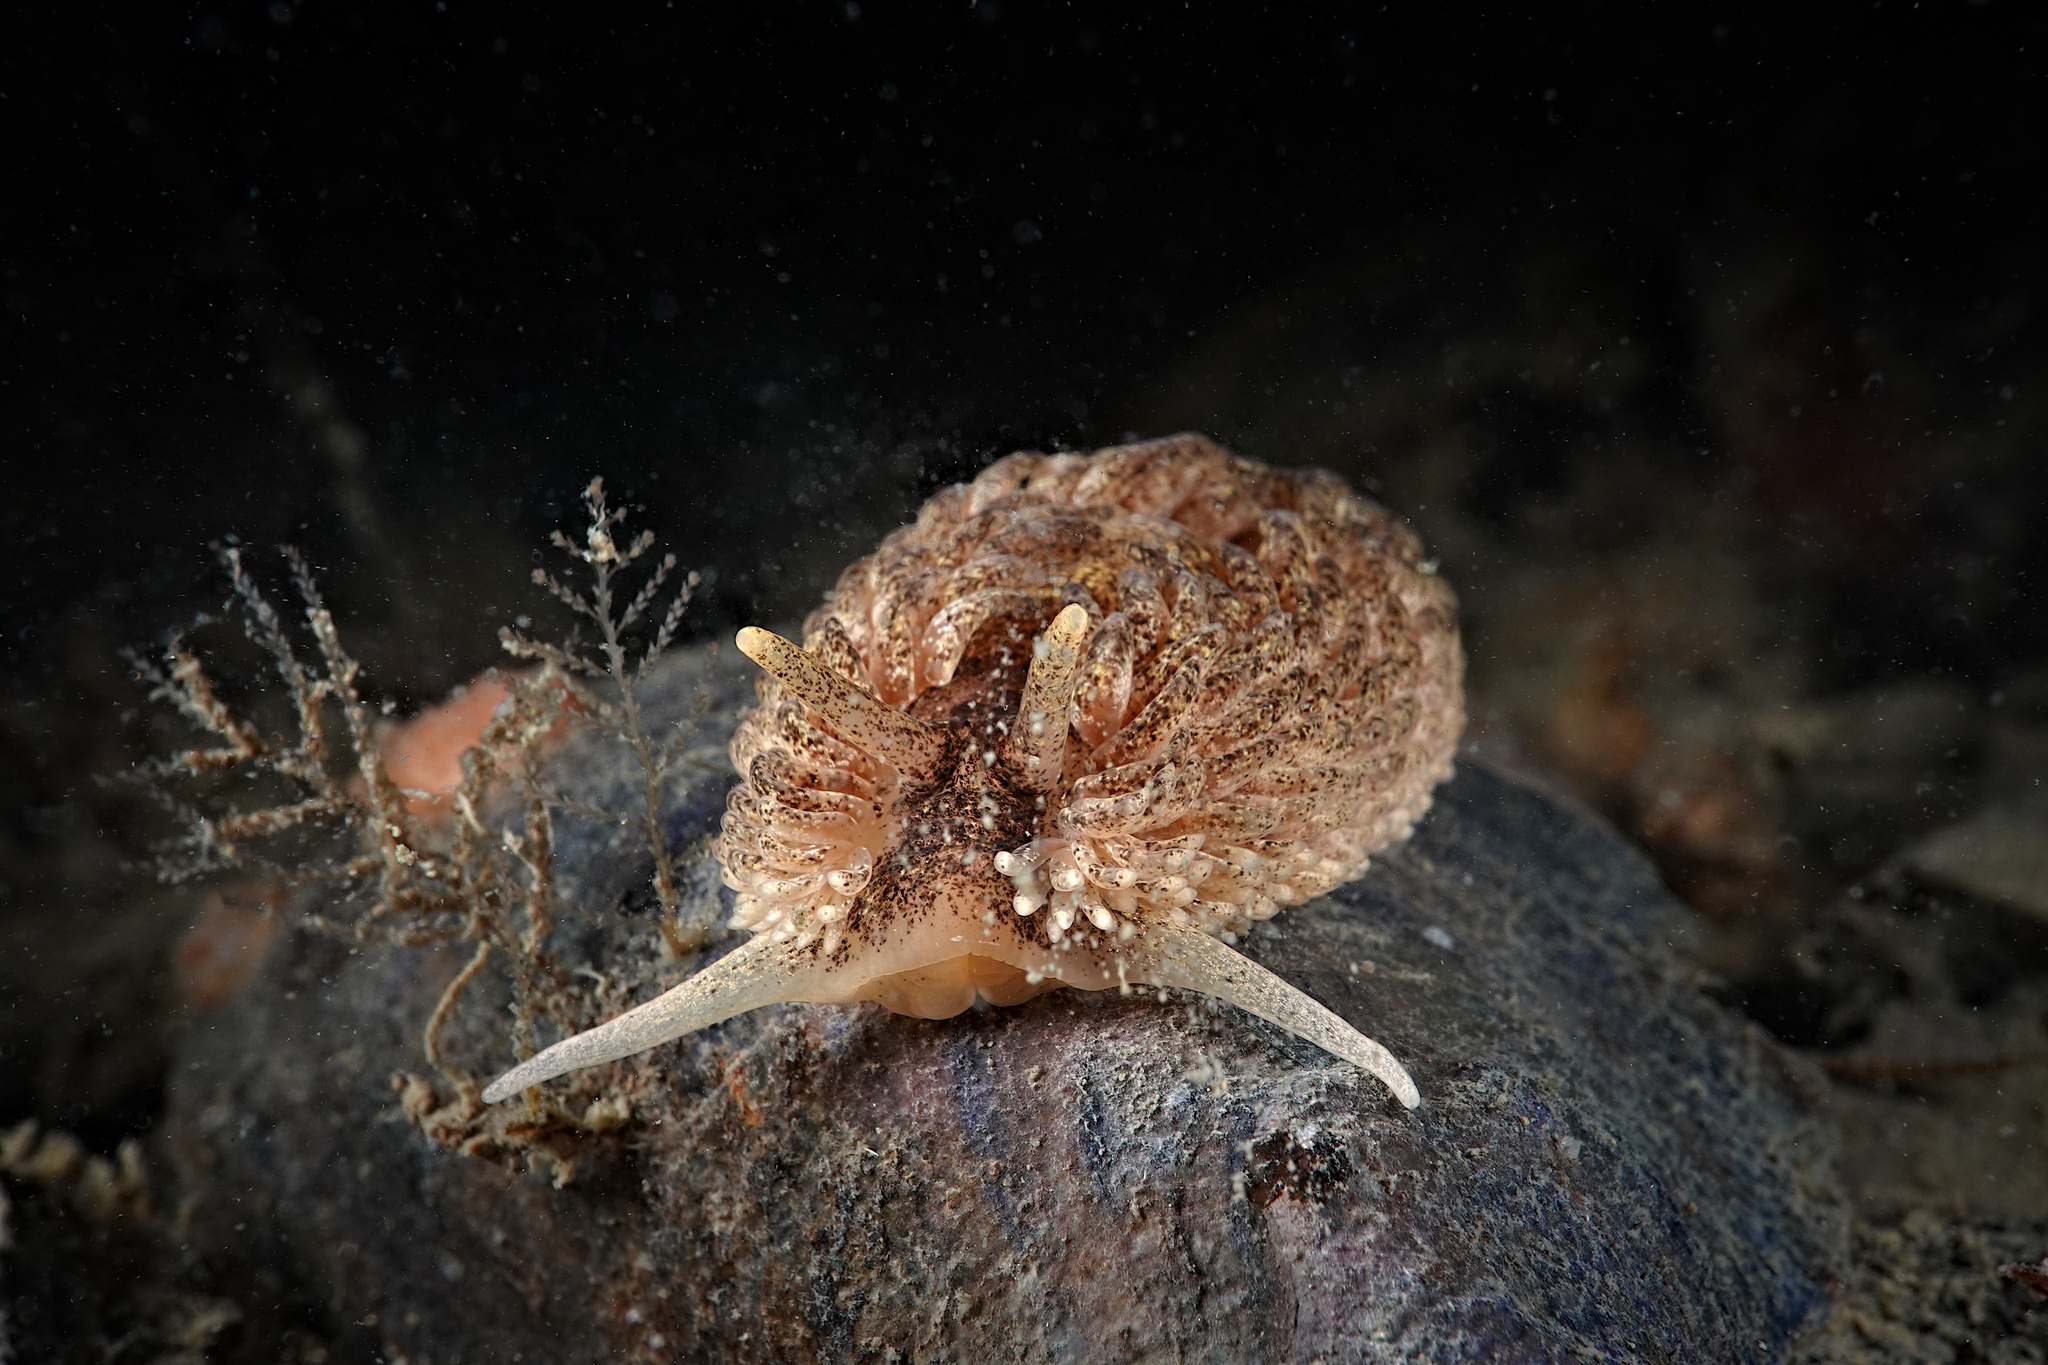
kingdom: Animalia
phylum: Mollusca
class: Gastropoda
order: Nudibranchia
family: Aeolidiidae
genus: Aeolidia
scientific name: Aeolidia papillosa
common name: Common grey sea slug
